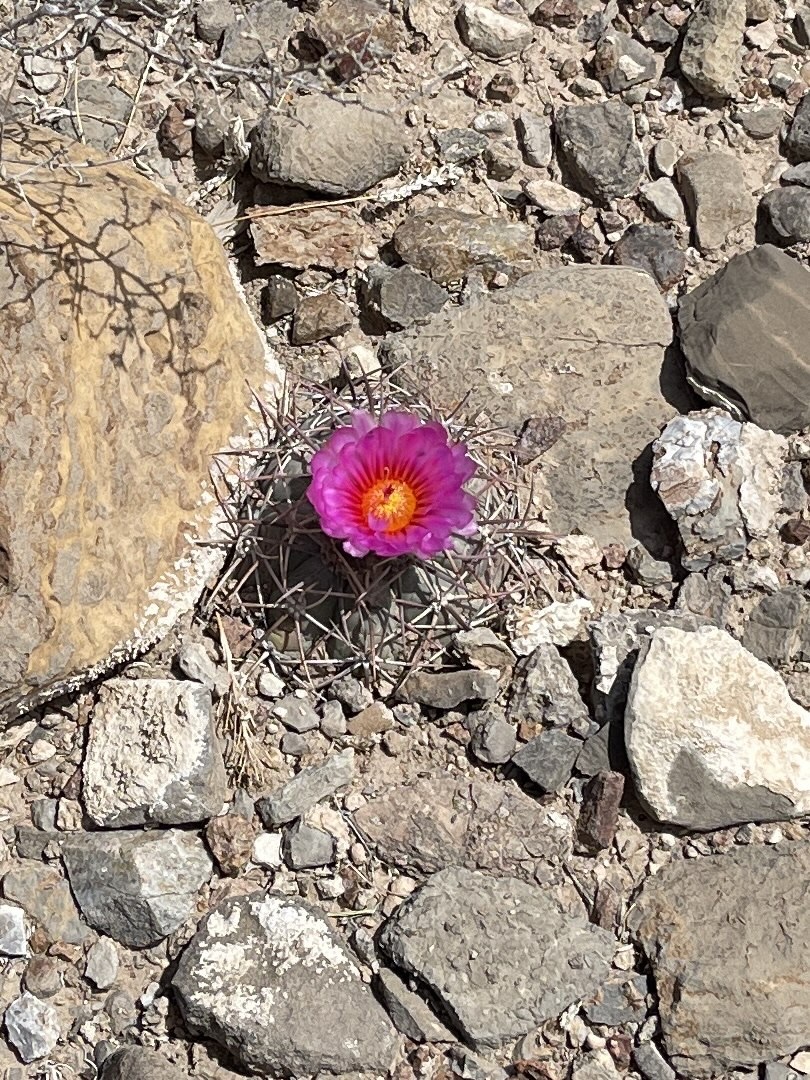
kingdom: Plantae
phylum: Tracheophyta
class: Magnoliopsida
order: Caryophyllales
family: Cactaceae
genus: Echinocactus
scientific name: Echinocactus horizonthalonius
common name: Devilshead
